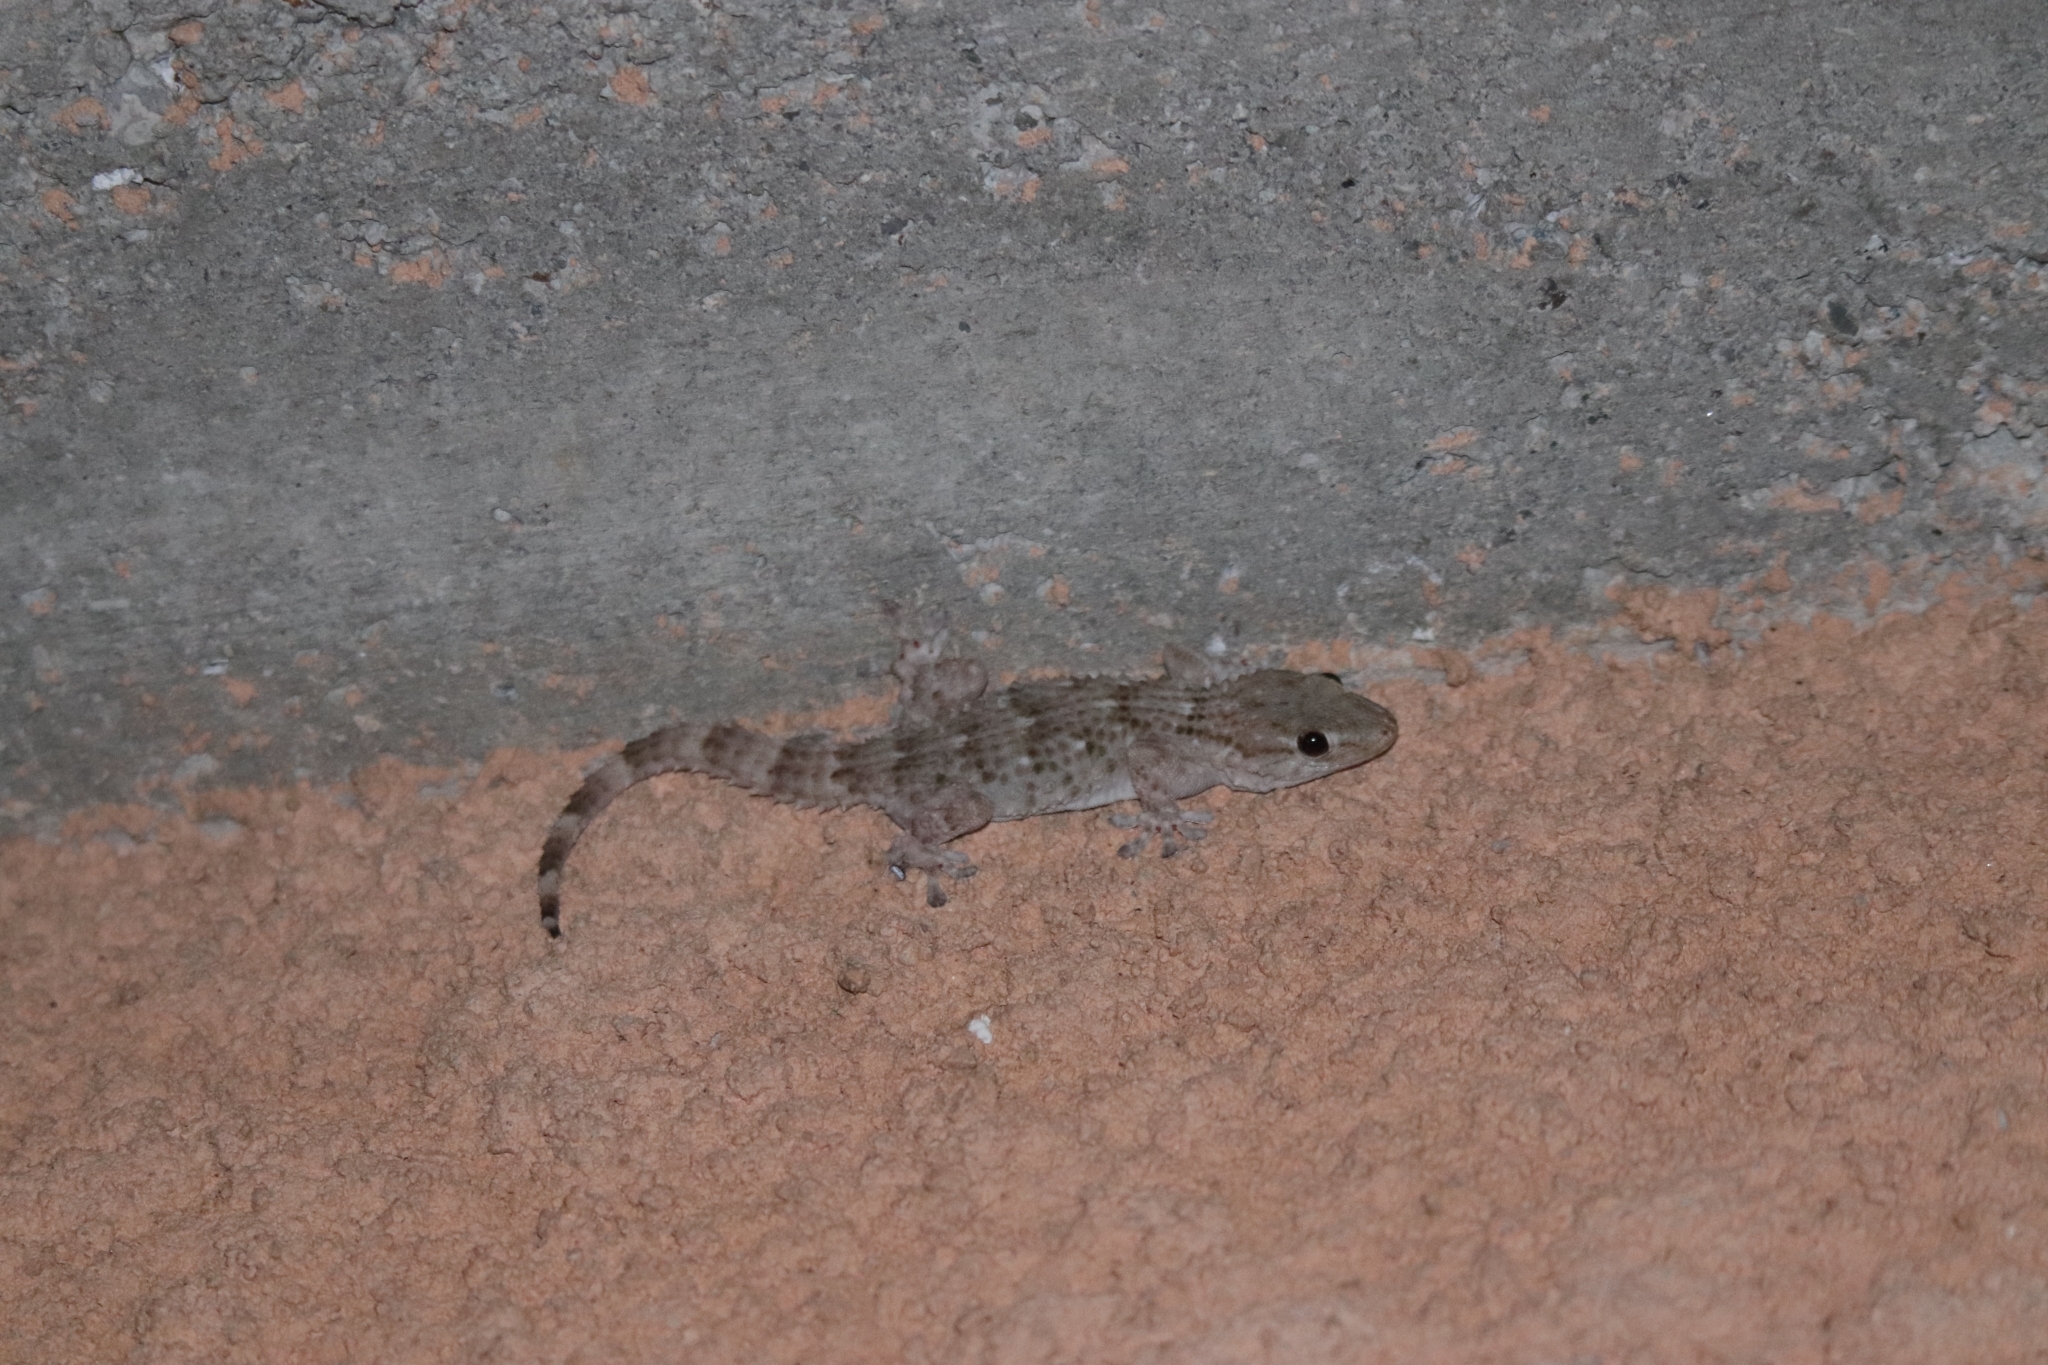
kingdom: Animalia
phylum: Chordata
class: Squamata
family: Phyllodactylidae
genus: Tarentola
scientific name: Tarentola mauritanica
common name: Moorish gecko
